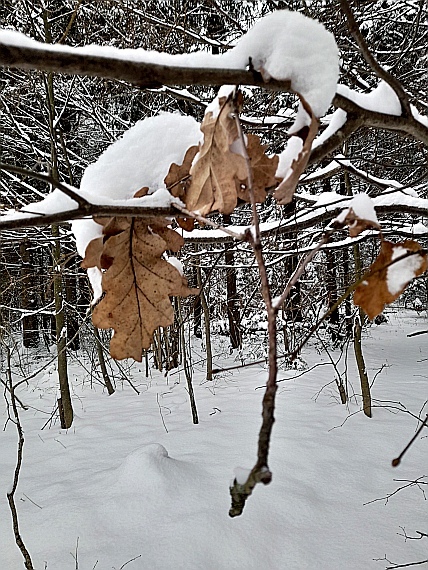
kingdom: Plantae
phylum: Tracheophyta
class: Magnoliopsida
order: Fagales
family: Fagaceae
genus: Quercus
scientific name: Quercus robur
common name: Pedunculate oak
